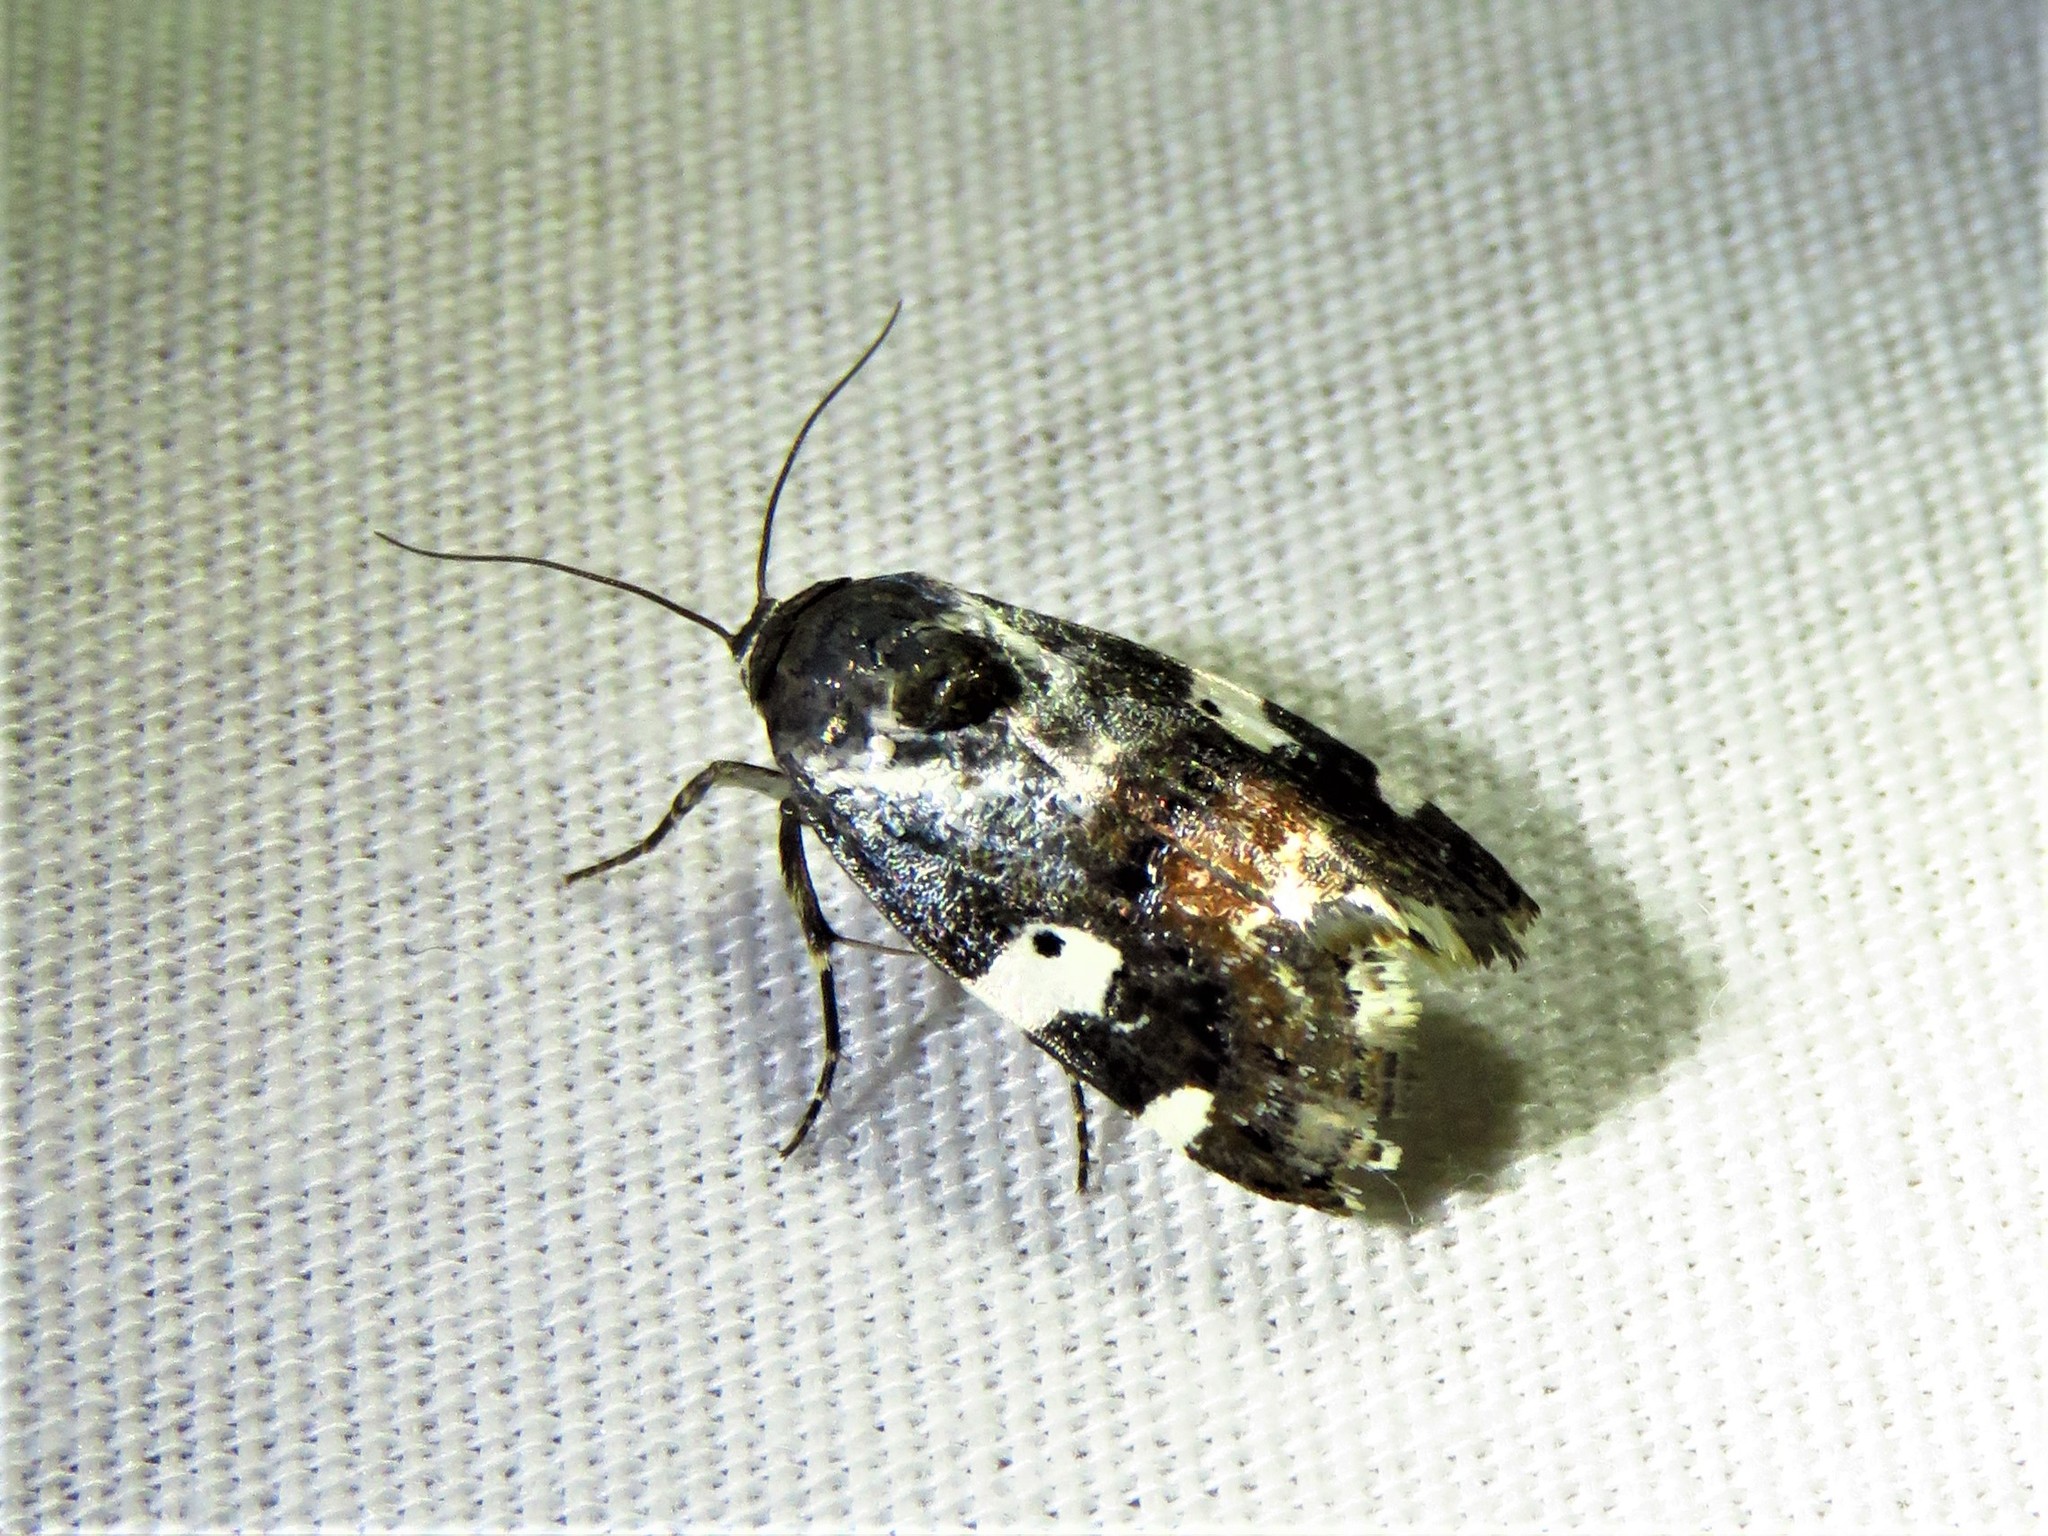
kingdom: Animalia
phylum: Arthropoda
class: Insecta
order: Lepidoptera
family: Noctuidae
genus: Acontia
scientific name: Acontia Tarache abdominalis
